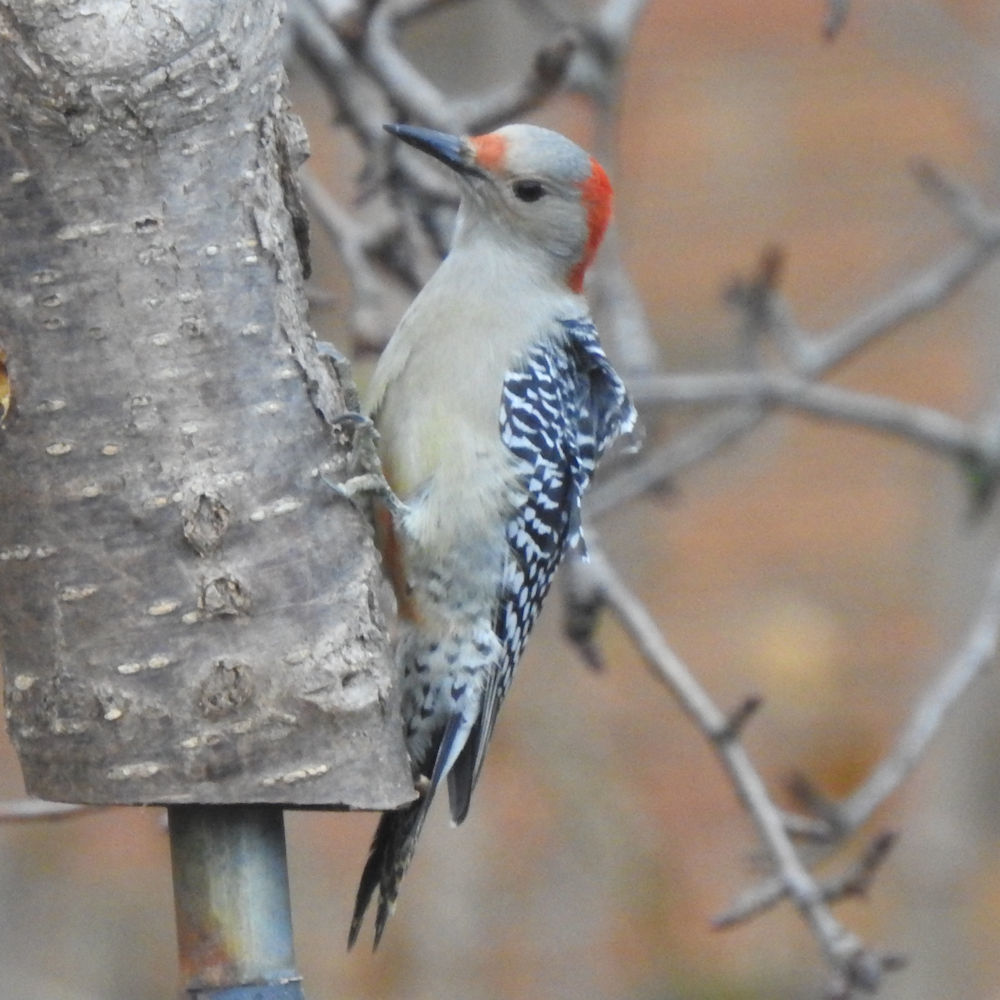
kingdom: Animalia
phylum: Chordata
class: Aves
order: Piciformes
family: Picidae
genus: Melanerpes
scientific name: Melanerpes carolinus
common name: Red-bellied woodpecker
